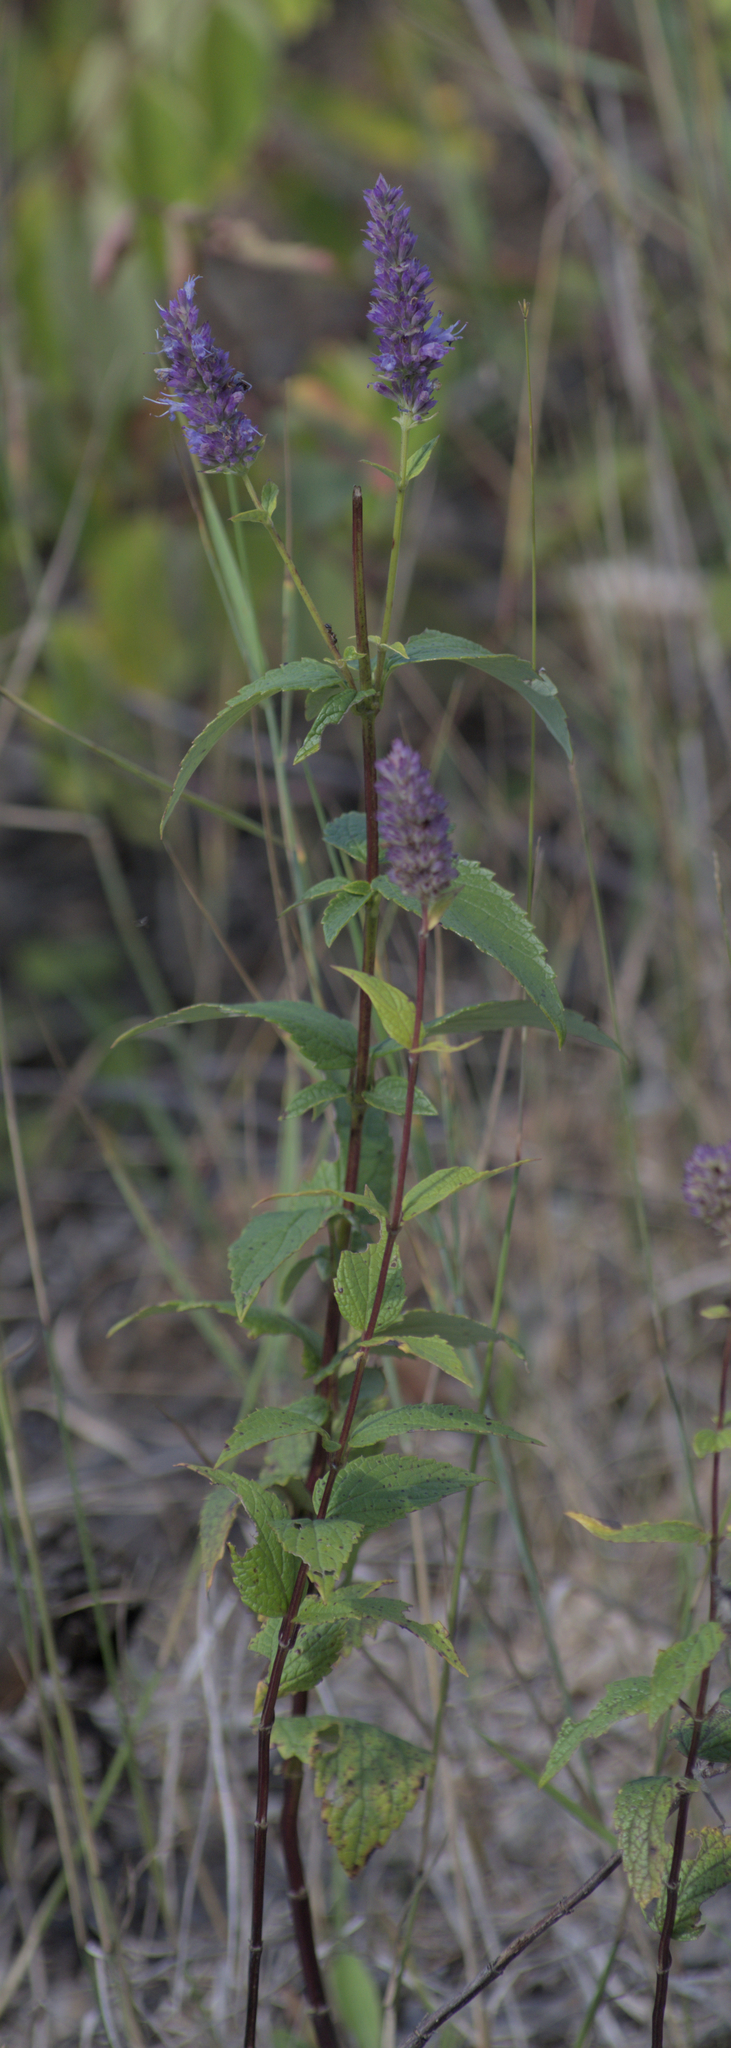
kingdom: Plantae
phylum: Tracheophyta
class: Magnoliopsida
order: Lamiales
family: Lamiaceae
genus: Agastache
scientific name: Agastache foeniculum
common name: Anise hyssop
